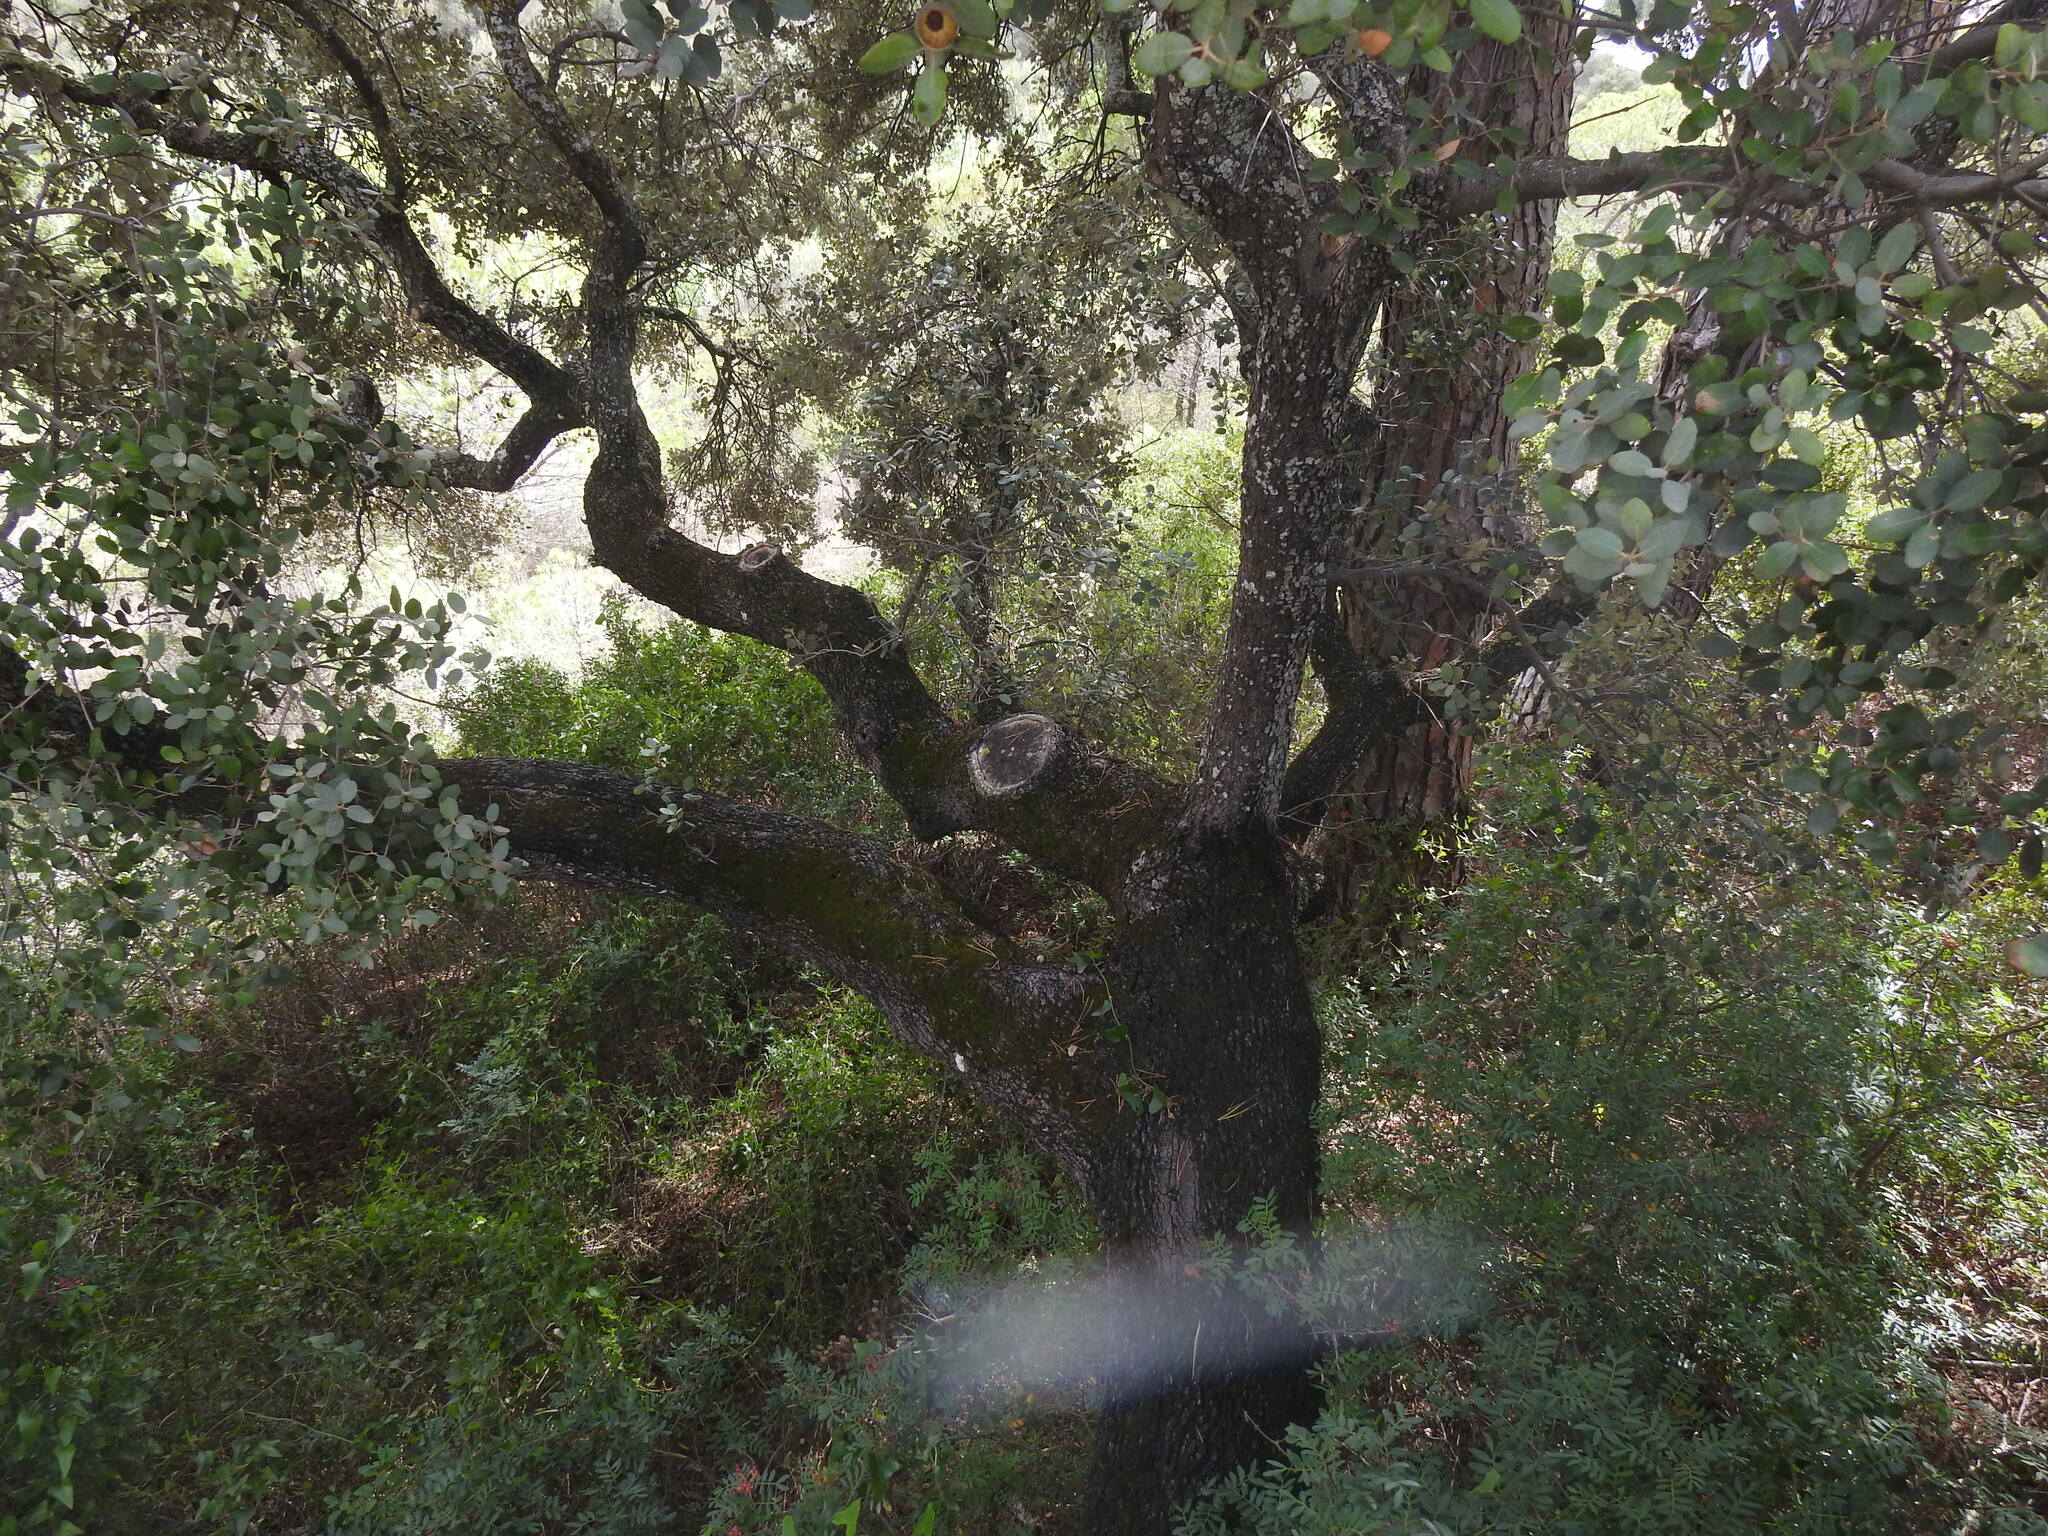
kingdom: Plantae
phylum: Tracheophyta
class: Magnoliopsida
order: Fagales
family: Fagaceae
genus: Quercus
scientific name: Quercus rotundifolia
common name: Holm oak
